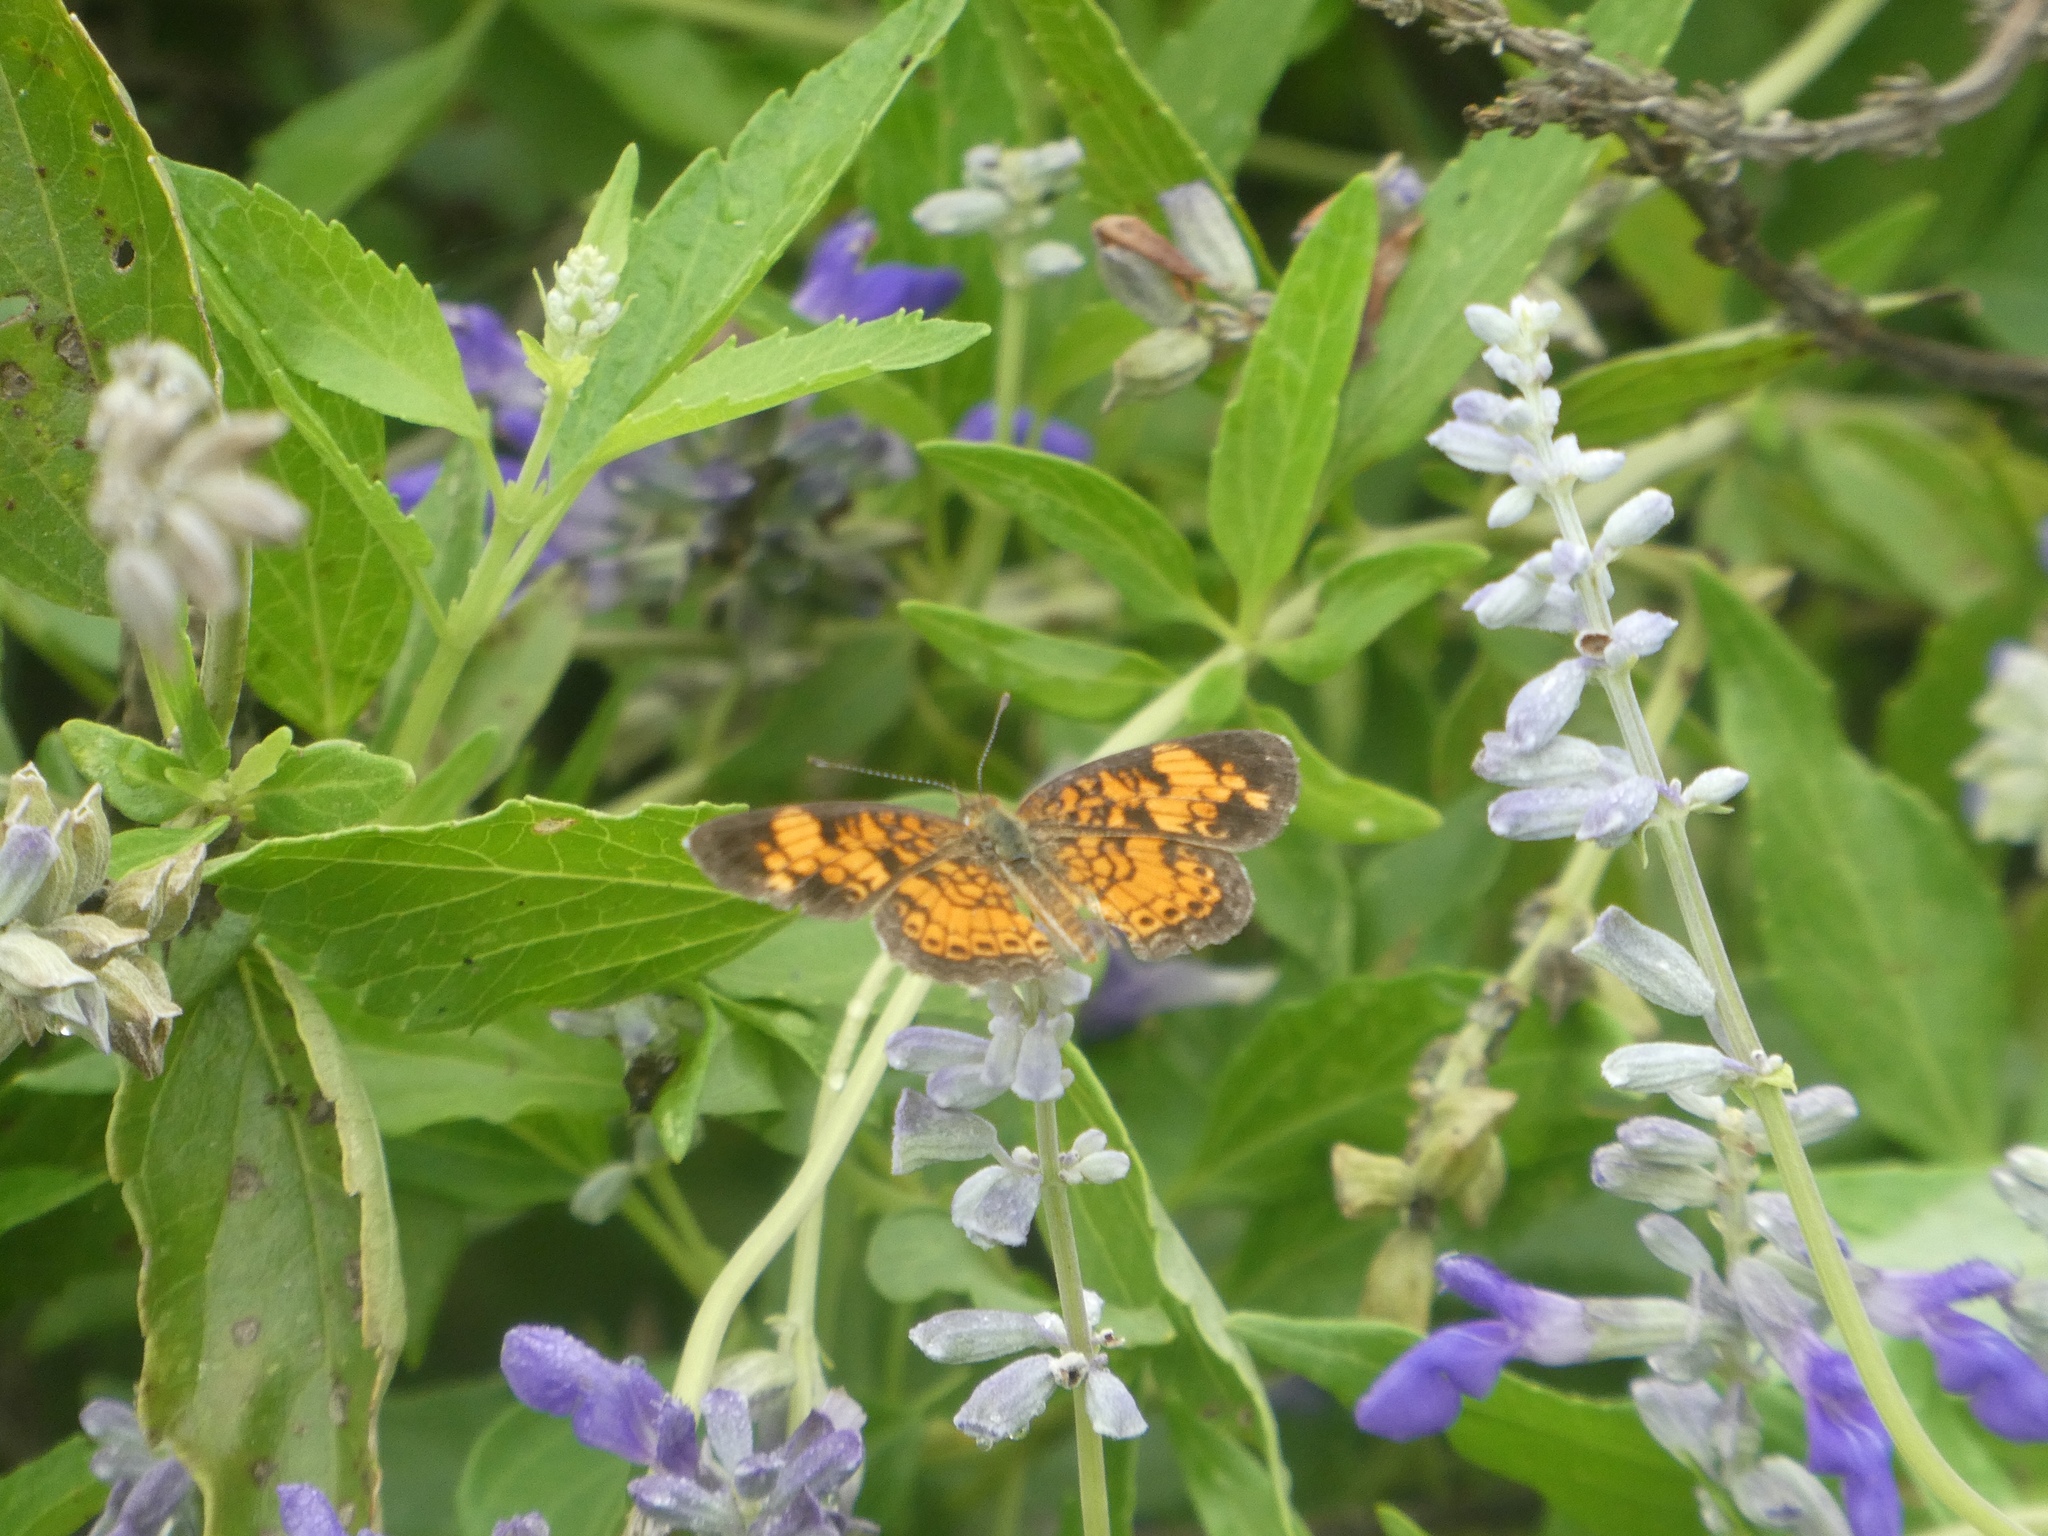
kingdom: Animalia
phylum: Arthropoda
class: Insecta
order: Lepidoptera
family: Nymphalidae
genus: Phyciodes
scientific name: Phyciodes tharos
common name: Pearl crescent
